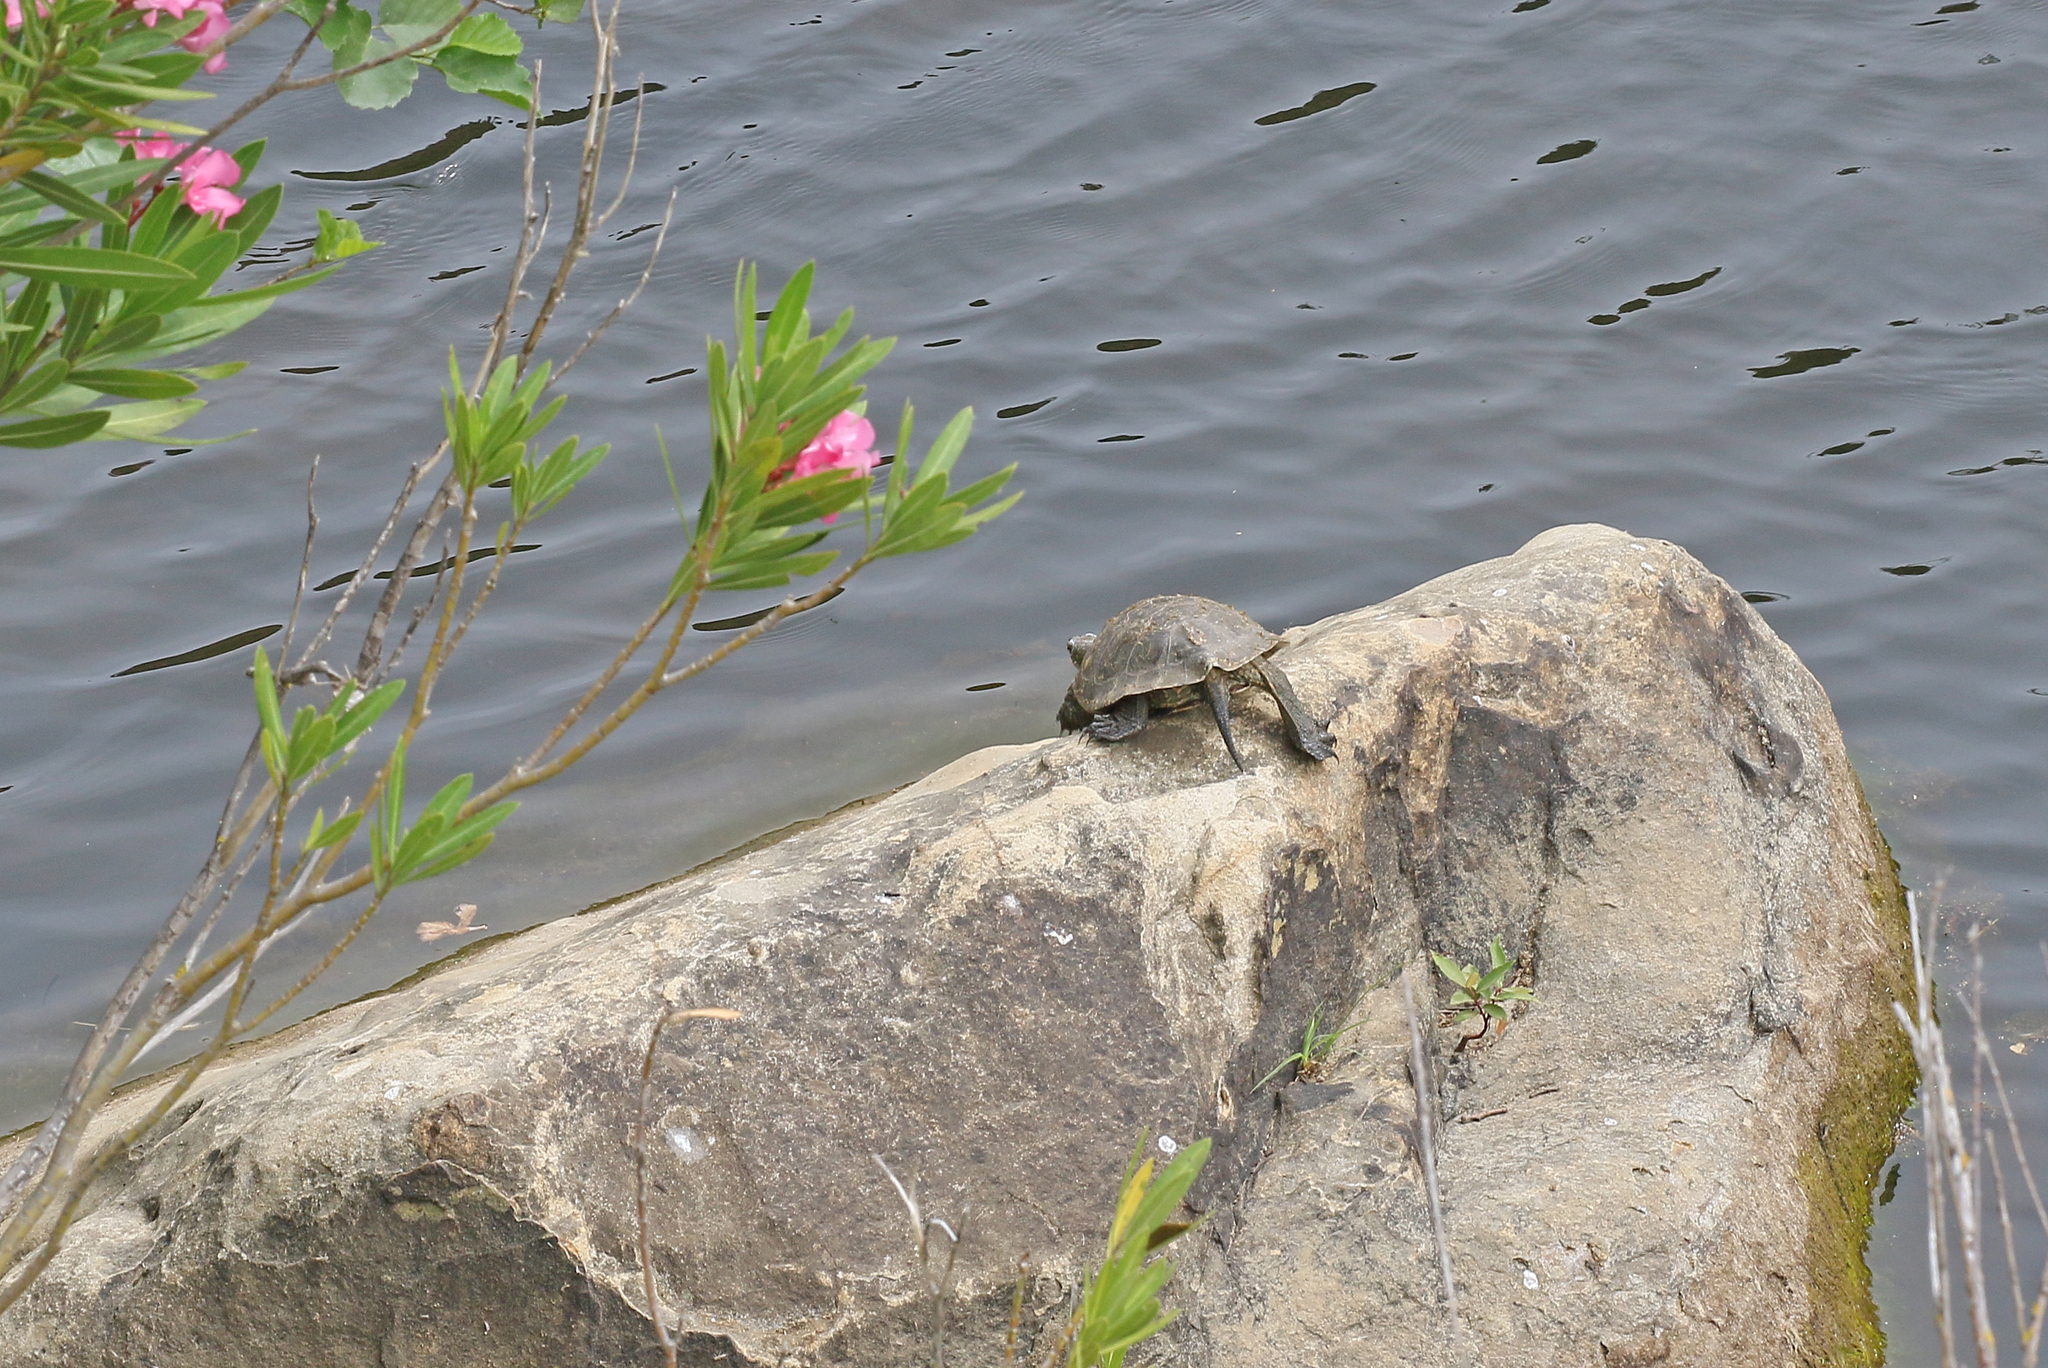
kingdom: Animalia
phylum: Chordata
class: Testudines
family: Geoemydidae
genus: Mauremys
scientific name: Mauremys leprosa
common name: Mediterranean pond turtle
